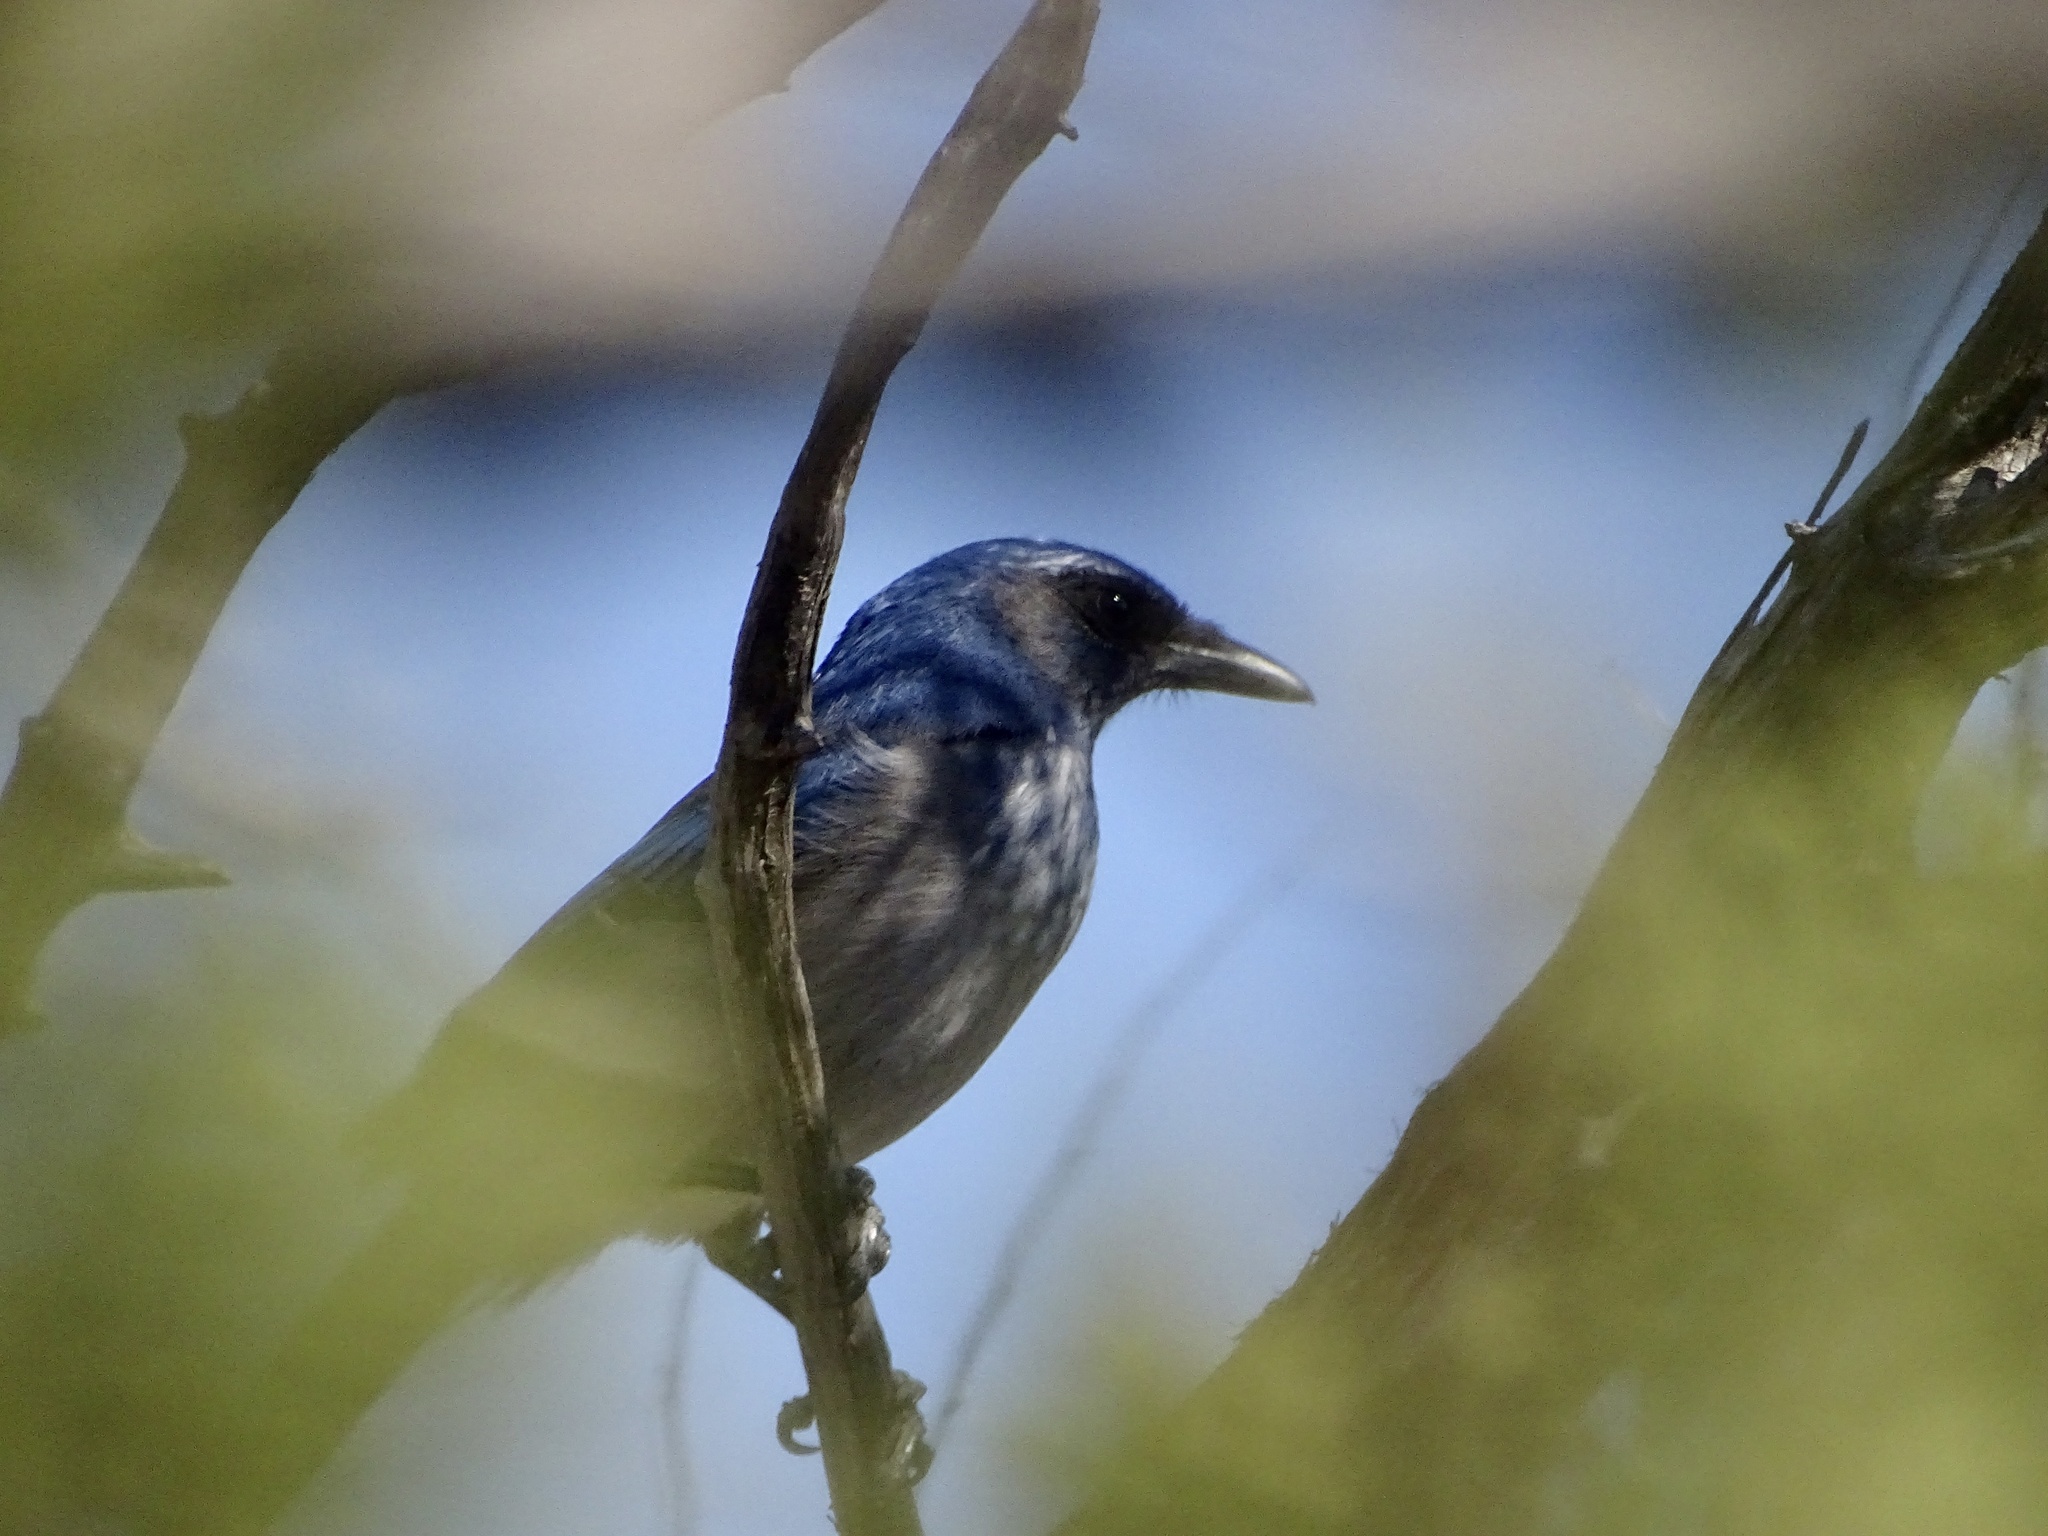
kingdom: Animalia
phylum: Chordata
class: Aves
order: Passeriformes
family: Corvidae
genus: Aphelocoma
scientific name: Aphelocoma woodhouseii
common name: Woodhouse's scrub-jay
